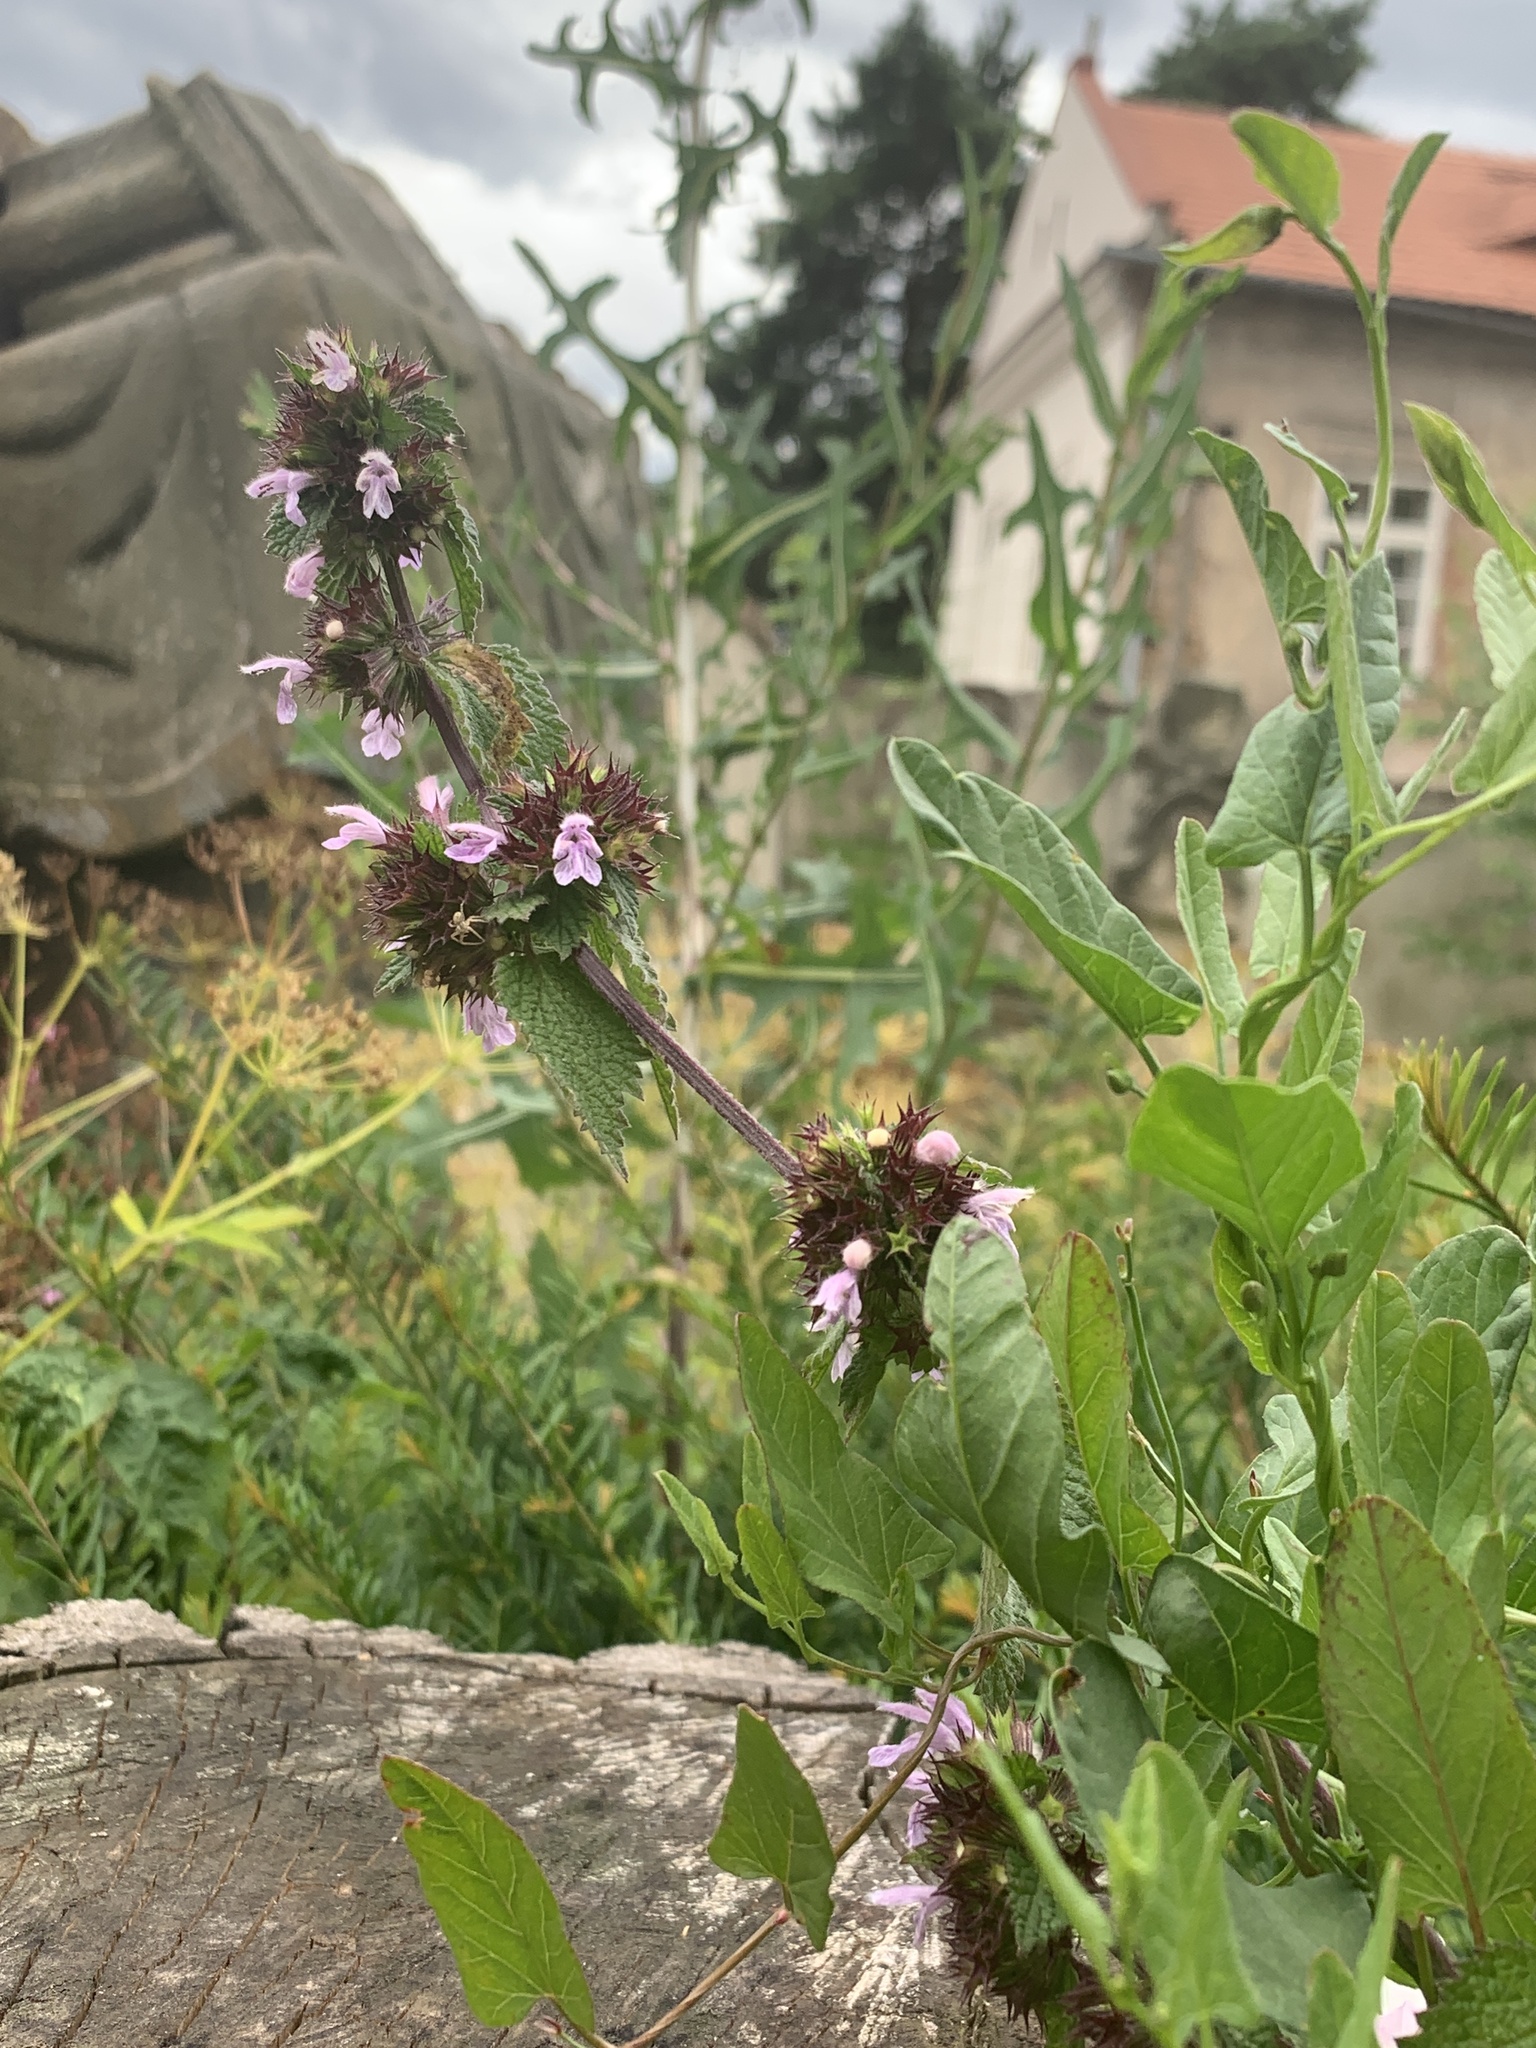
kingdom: Plantae
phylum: Tracheophyta
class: Magnoliopsida
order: Lamiales
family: Lamiaceae
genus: Ballota
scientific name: Ballota nigra
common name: Black horehound
